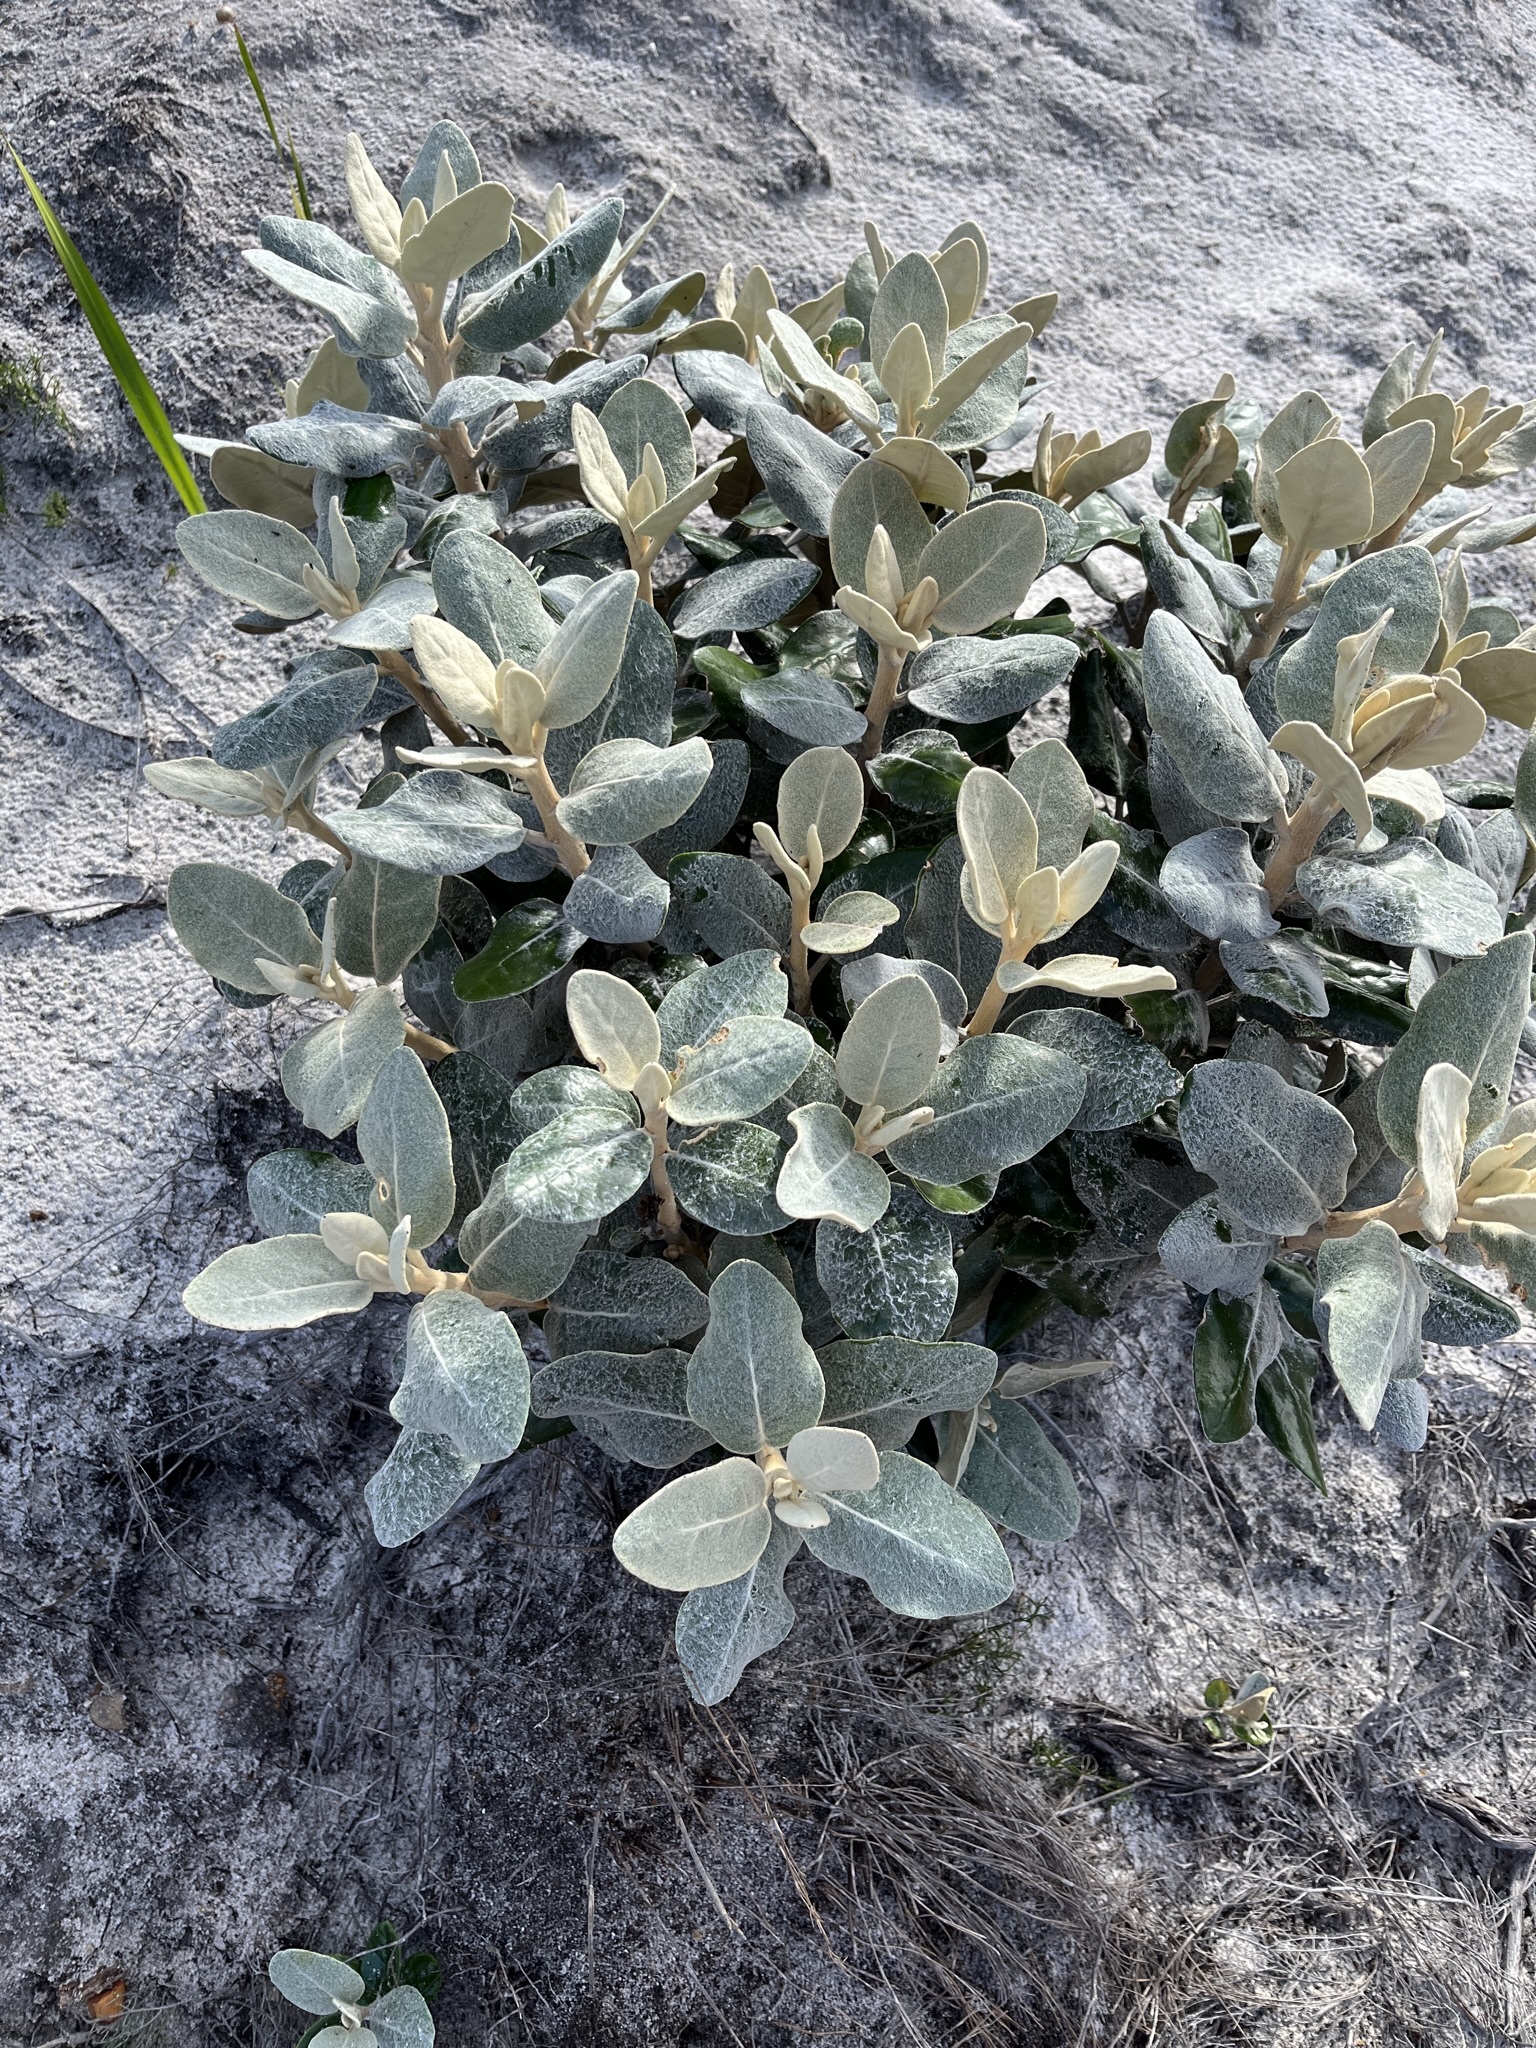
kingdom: Plantae
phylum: Tracheophyta
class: Magnoliopsida
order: Asterales
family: Asteraceae
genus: Capelio
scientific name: Capelio tabularis
